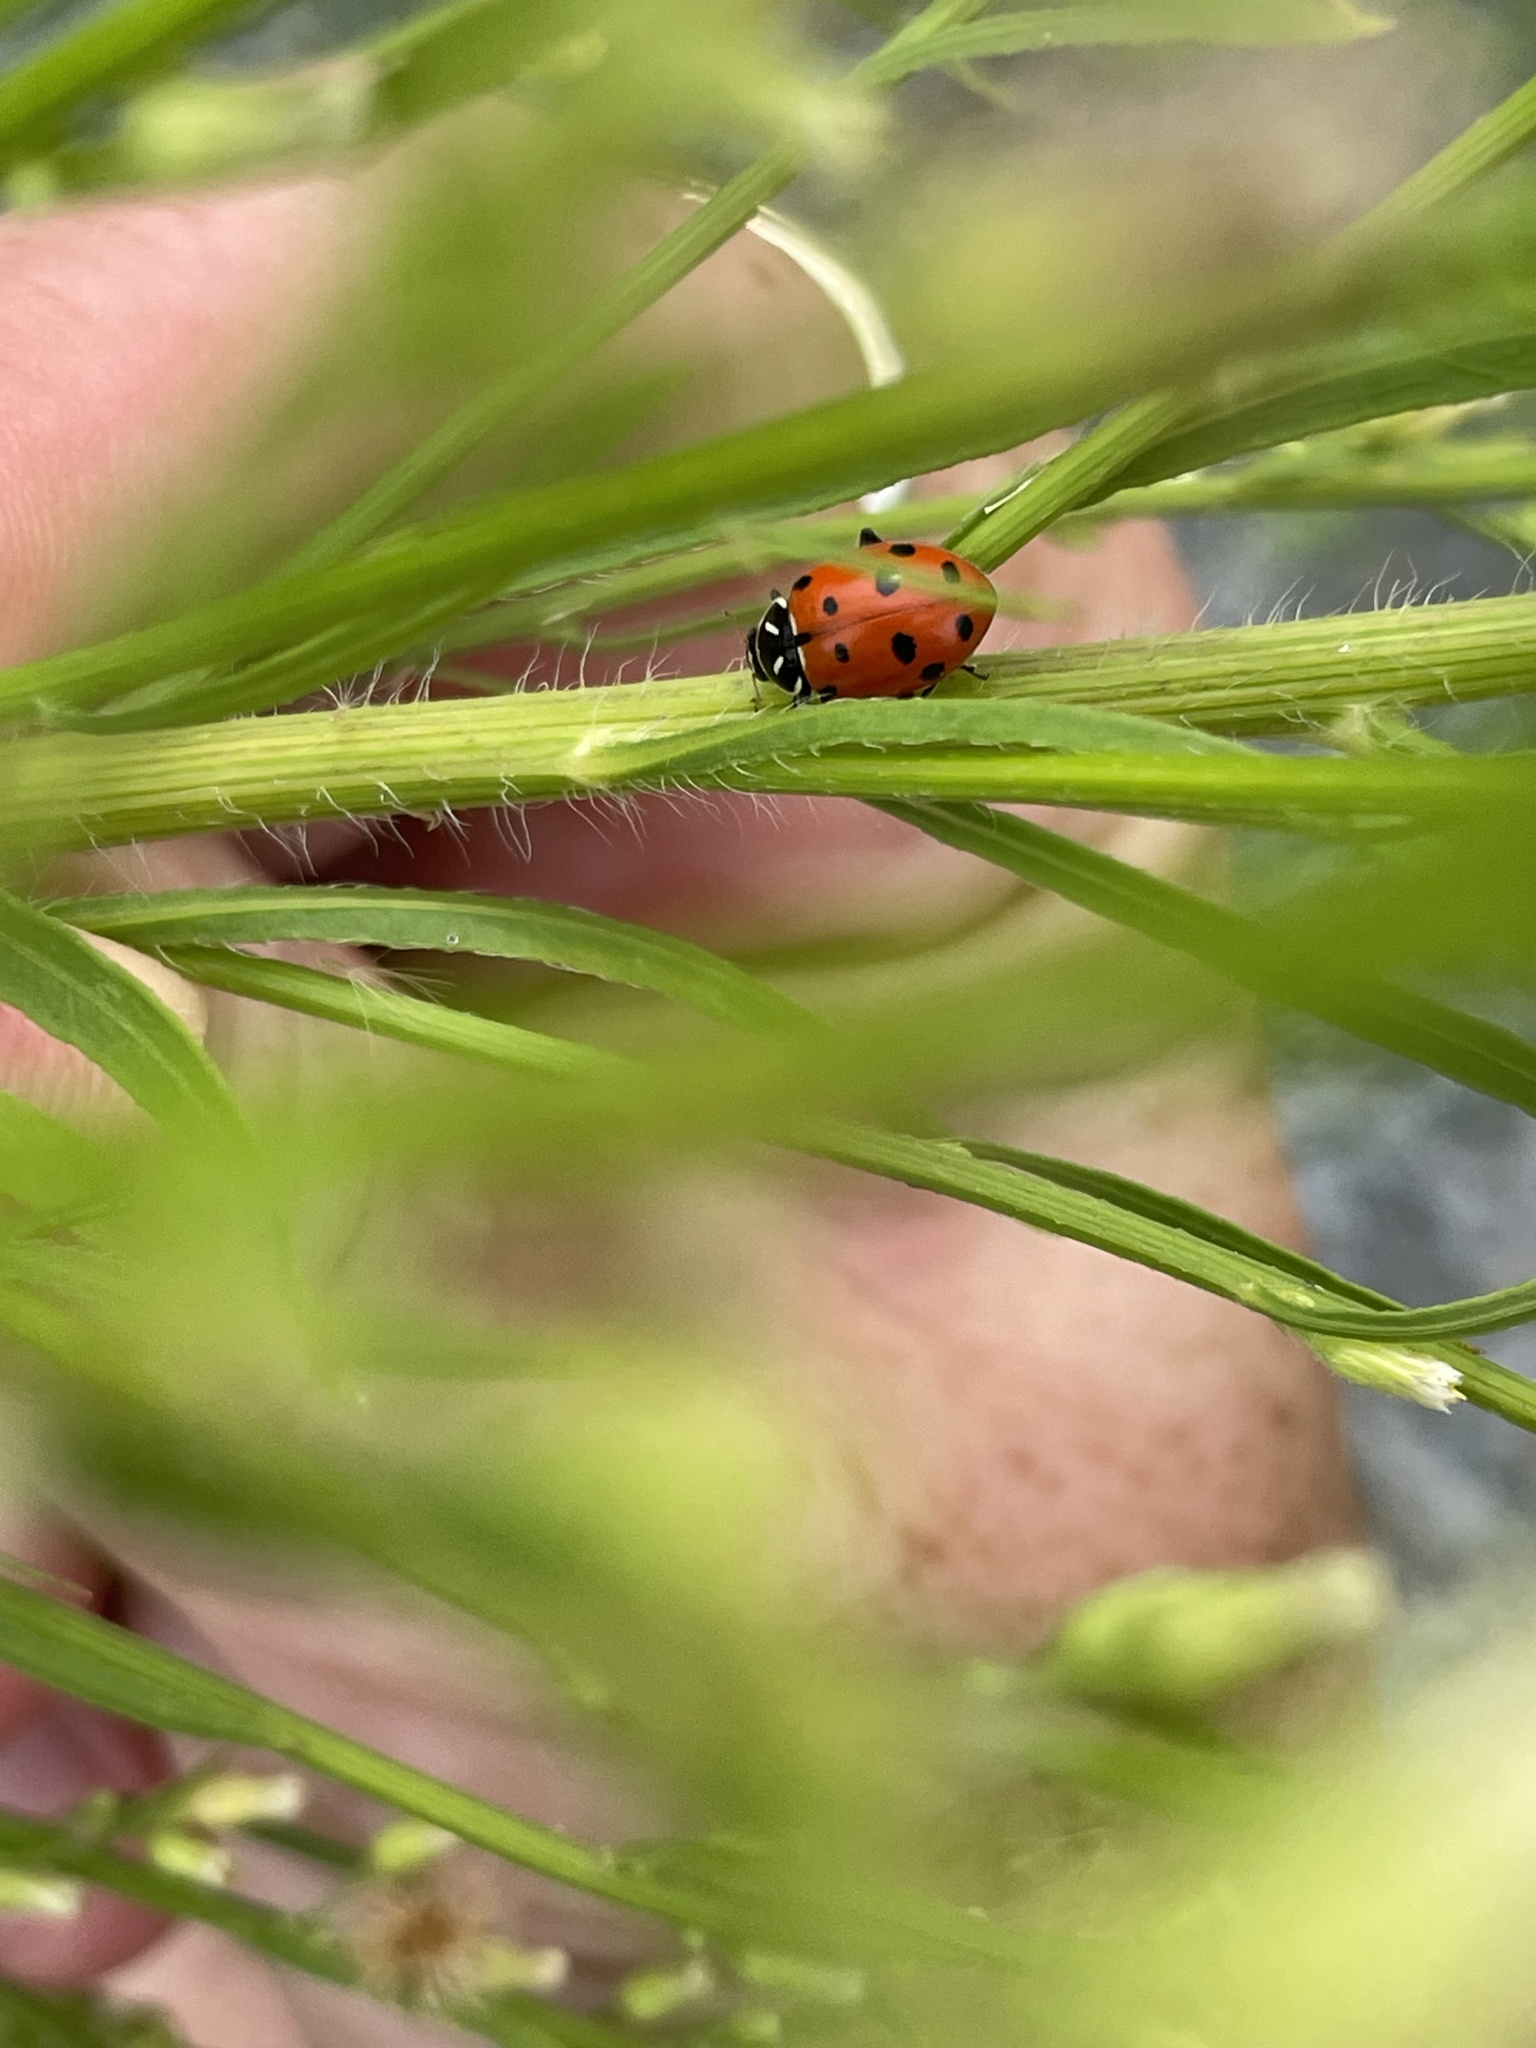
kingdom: Animalia
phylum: Arthropoda
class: Insecta
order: Coleoptera
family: Coccinellidae
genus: Hippodamia
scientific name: Hippodamia convergens
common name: Convergent lady beetle
